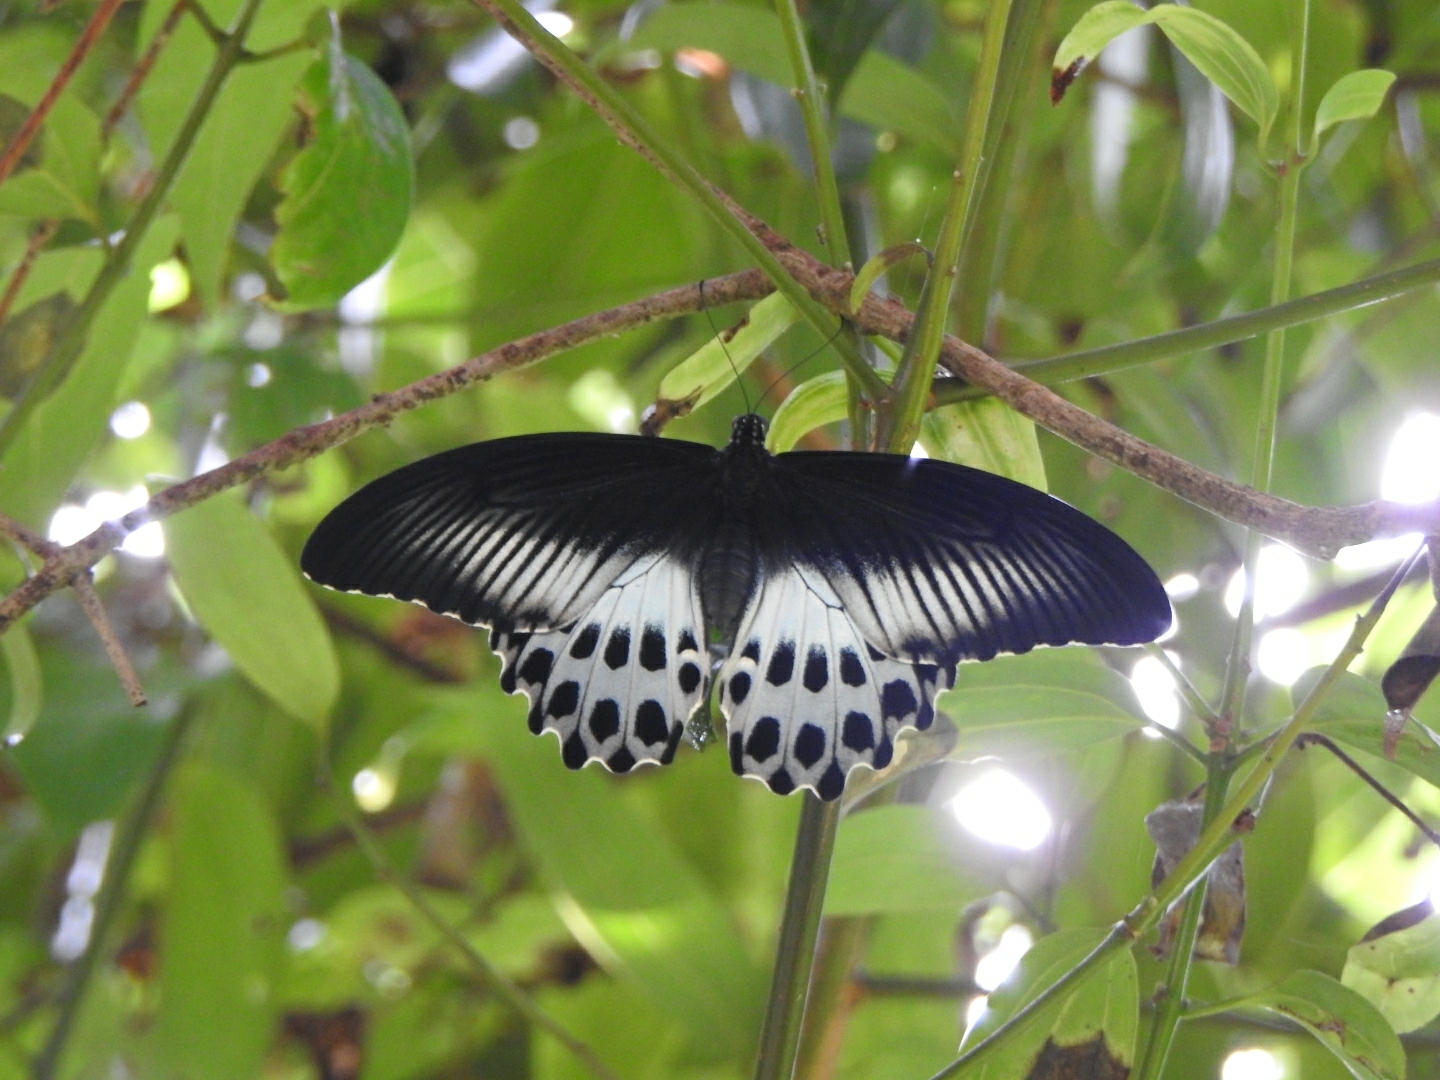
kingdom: Animalia
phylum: Arthropoda
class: Insecta
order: Lepidoptera
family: Papilionidae
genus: Papilio
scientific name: Papilio memnon
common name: Great mormon
